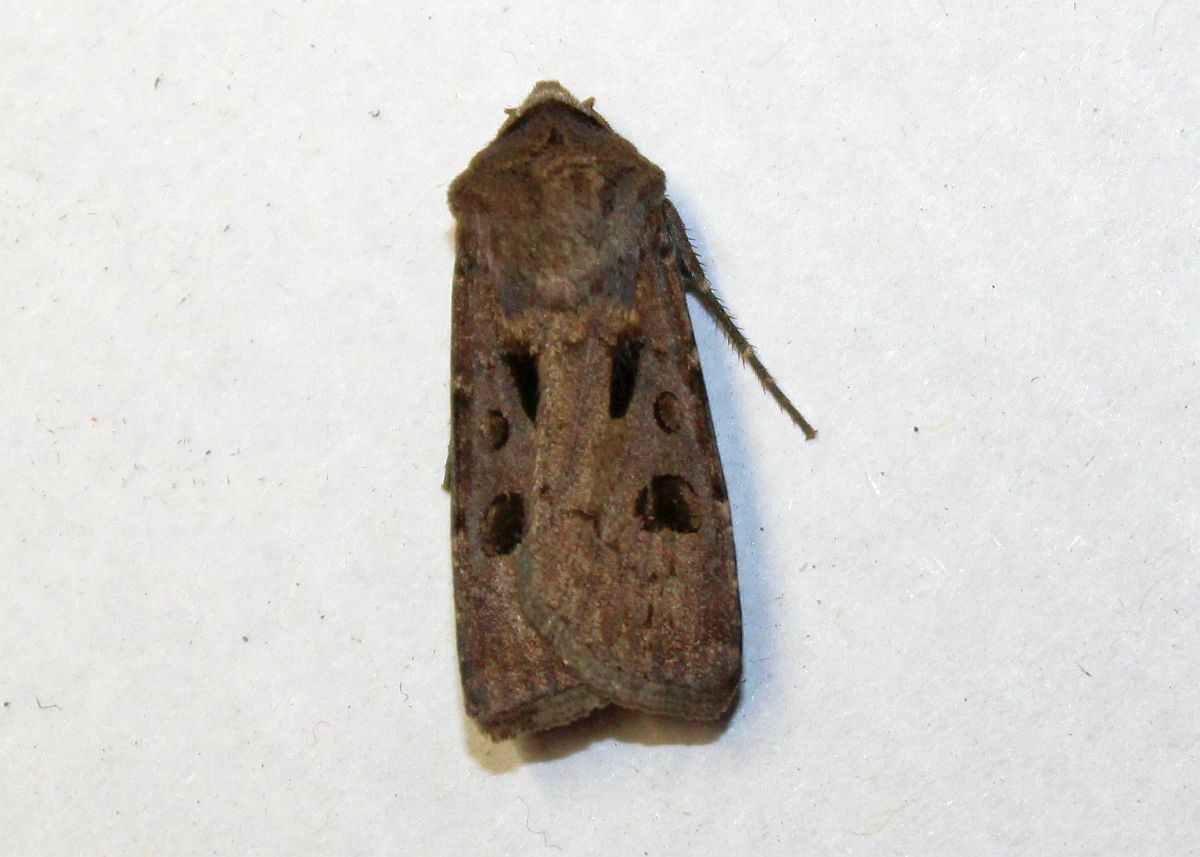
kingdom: Animalia
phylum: Arthropoda
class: Insecta
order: Lepidoptera
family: Noctuidae
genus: Agrotis
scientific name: Agrotis exclamationis
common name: Heart and dart
